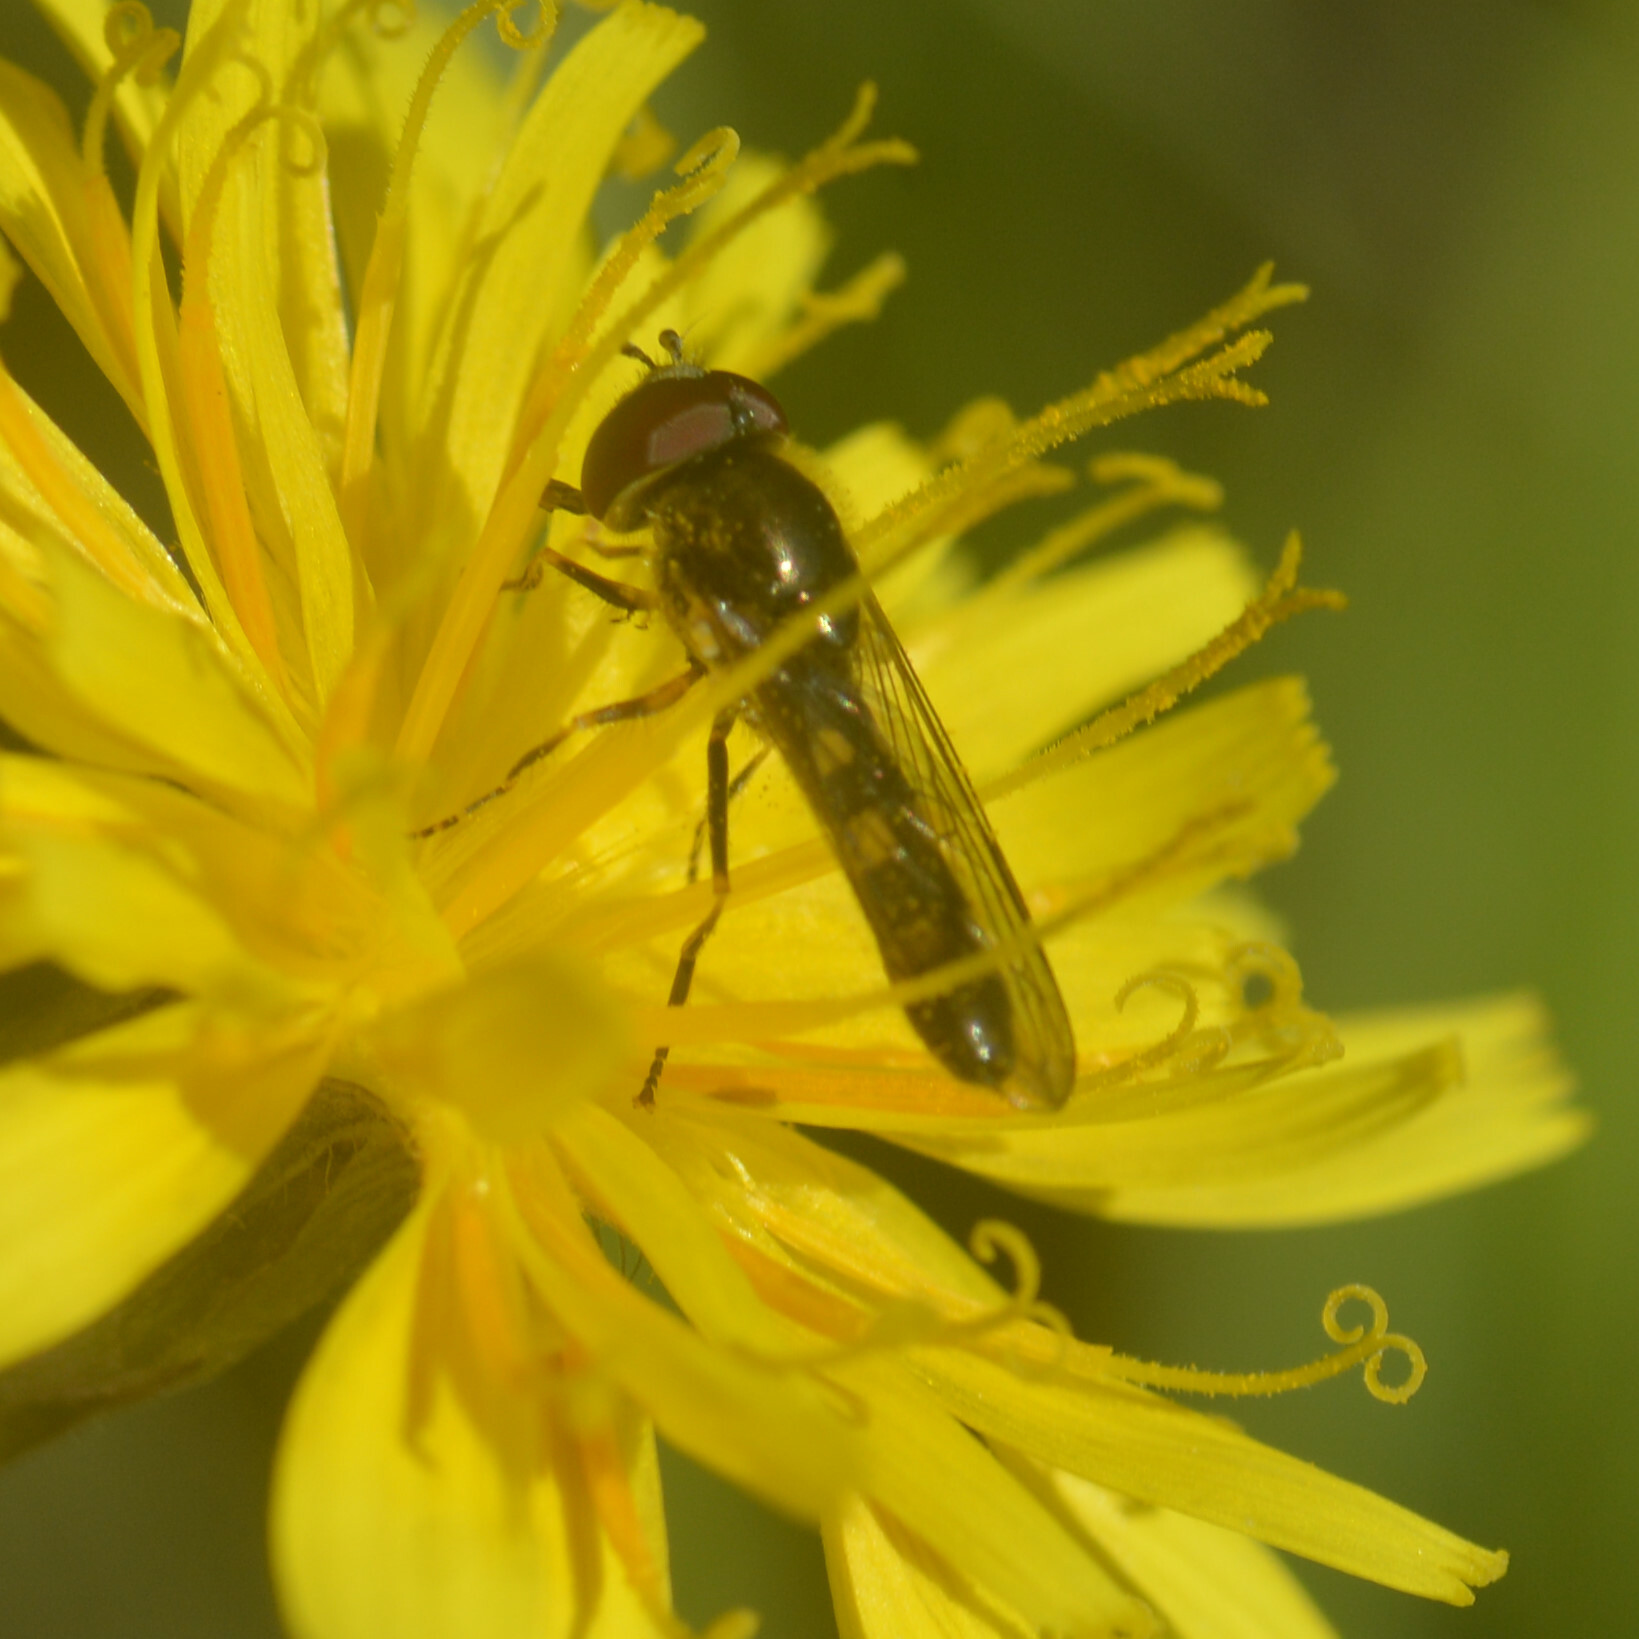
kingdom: Animalia
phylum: Arthropoda
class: Insecta
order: Diptera
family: Syrphidae
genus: Platycheirus
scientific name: Platycheirus scutatus
